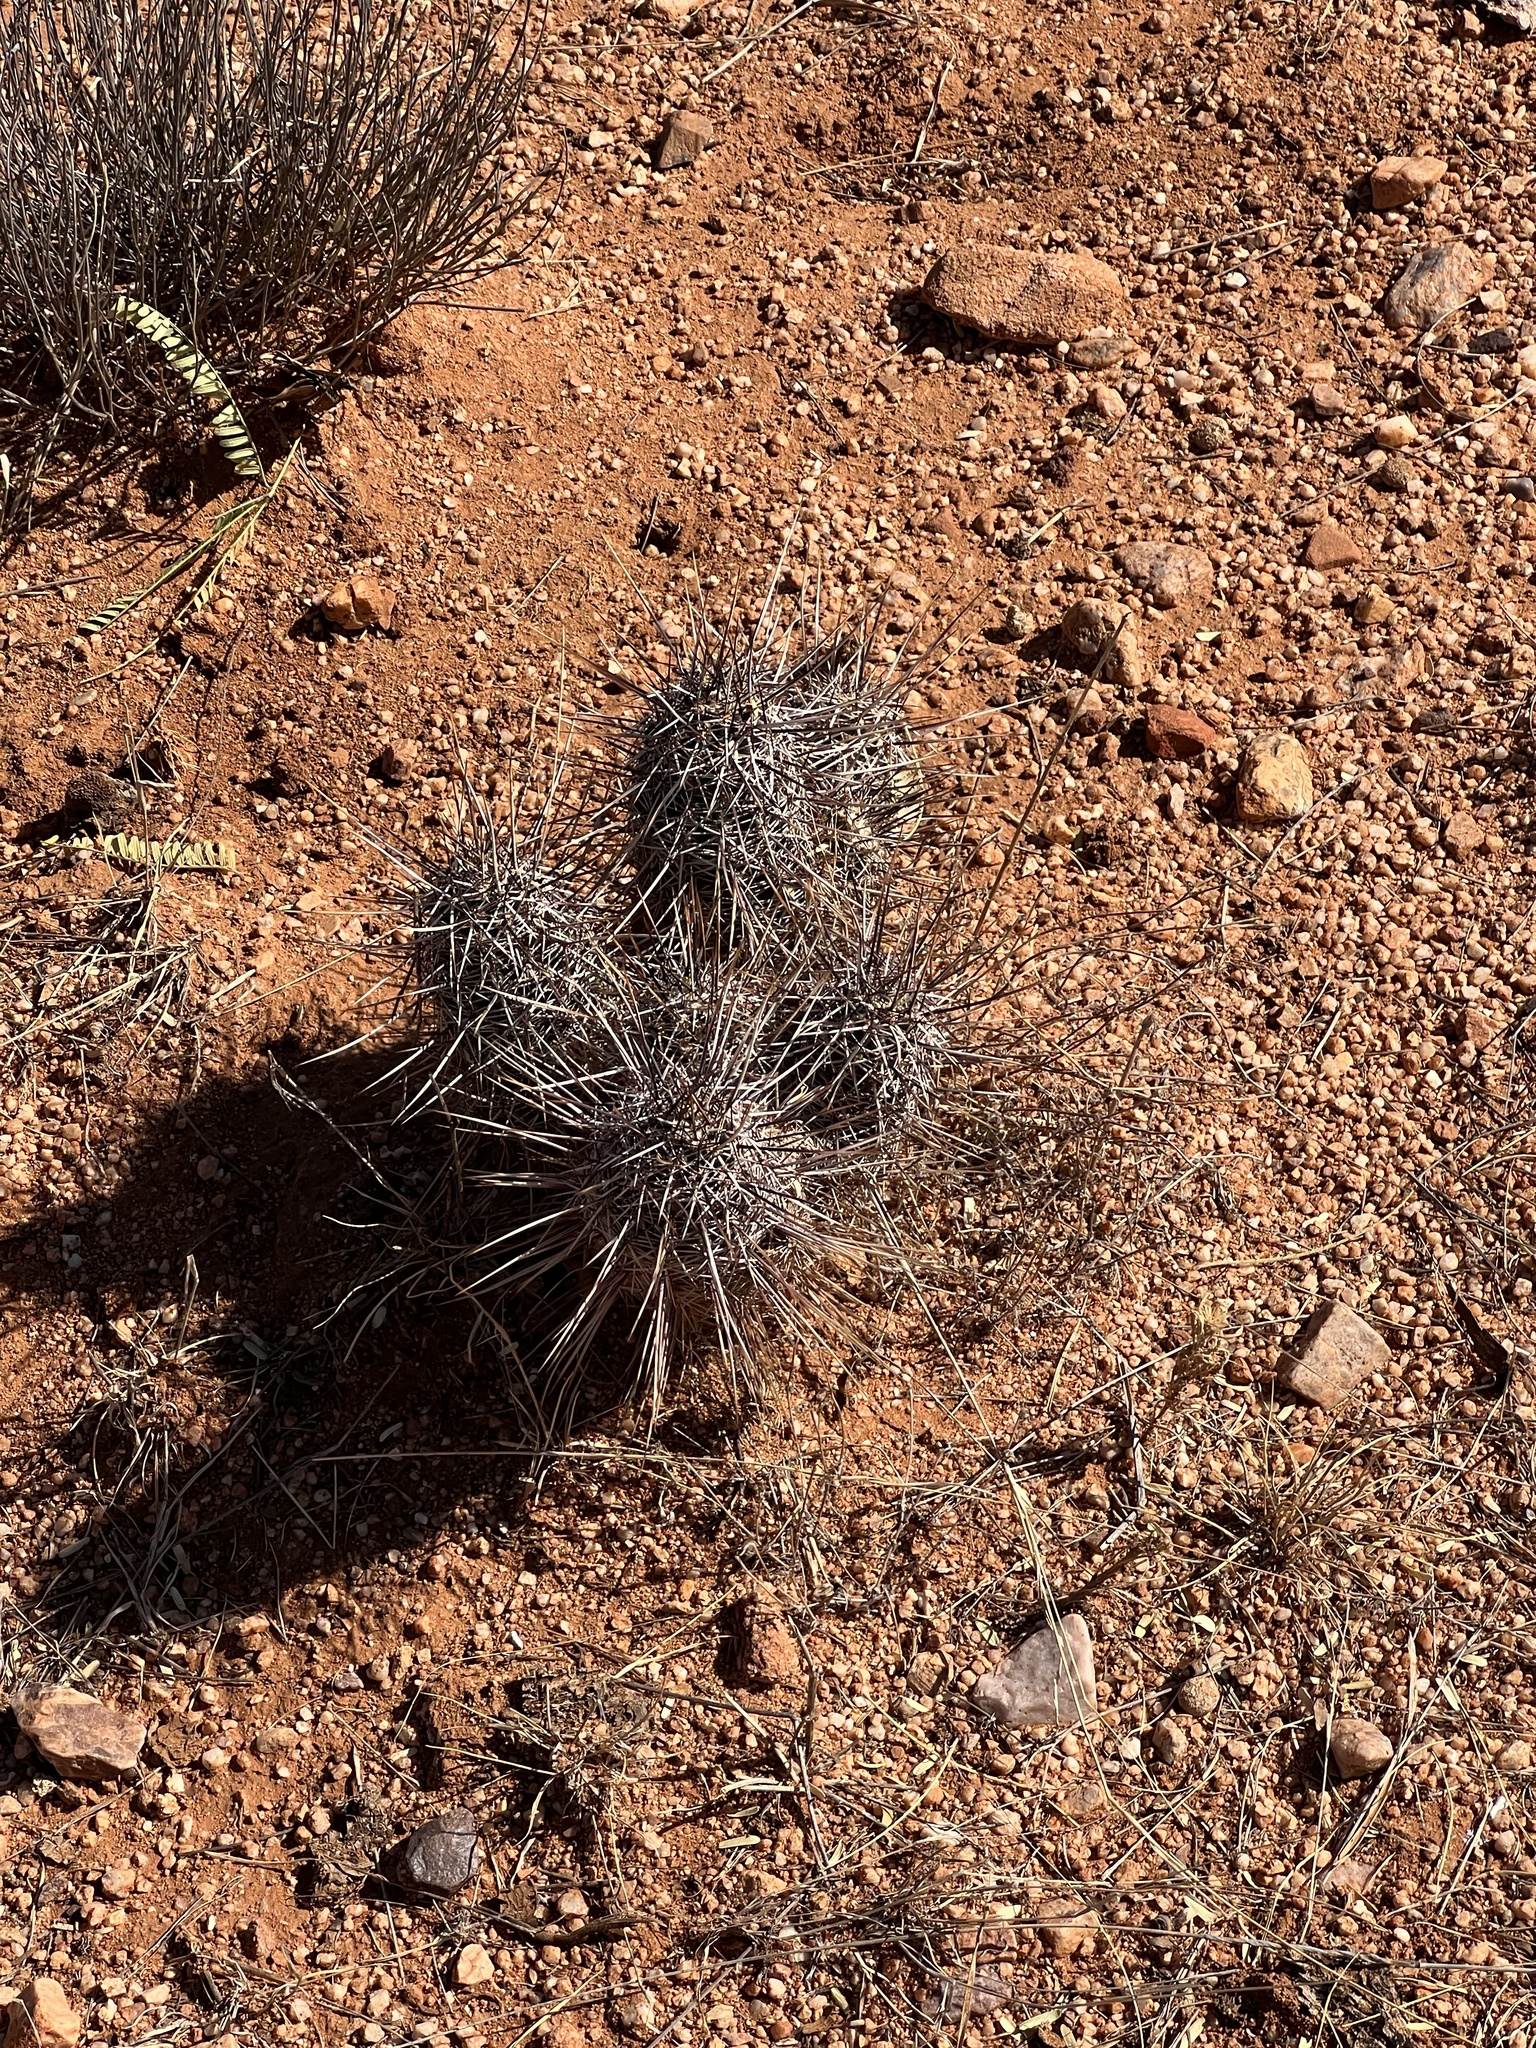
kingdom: Plantae
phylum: Tracheophyta
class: Magnoliopsida
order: Caryophyllales
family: Cactaceae
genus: Echinocereus
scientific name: Echinocereus fasciculatus
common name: Bundle hedgehog
